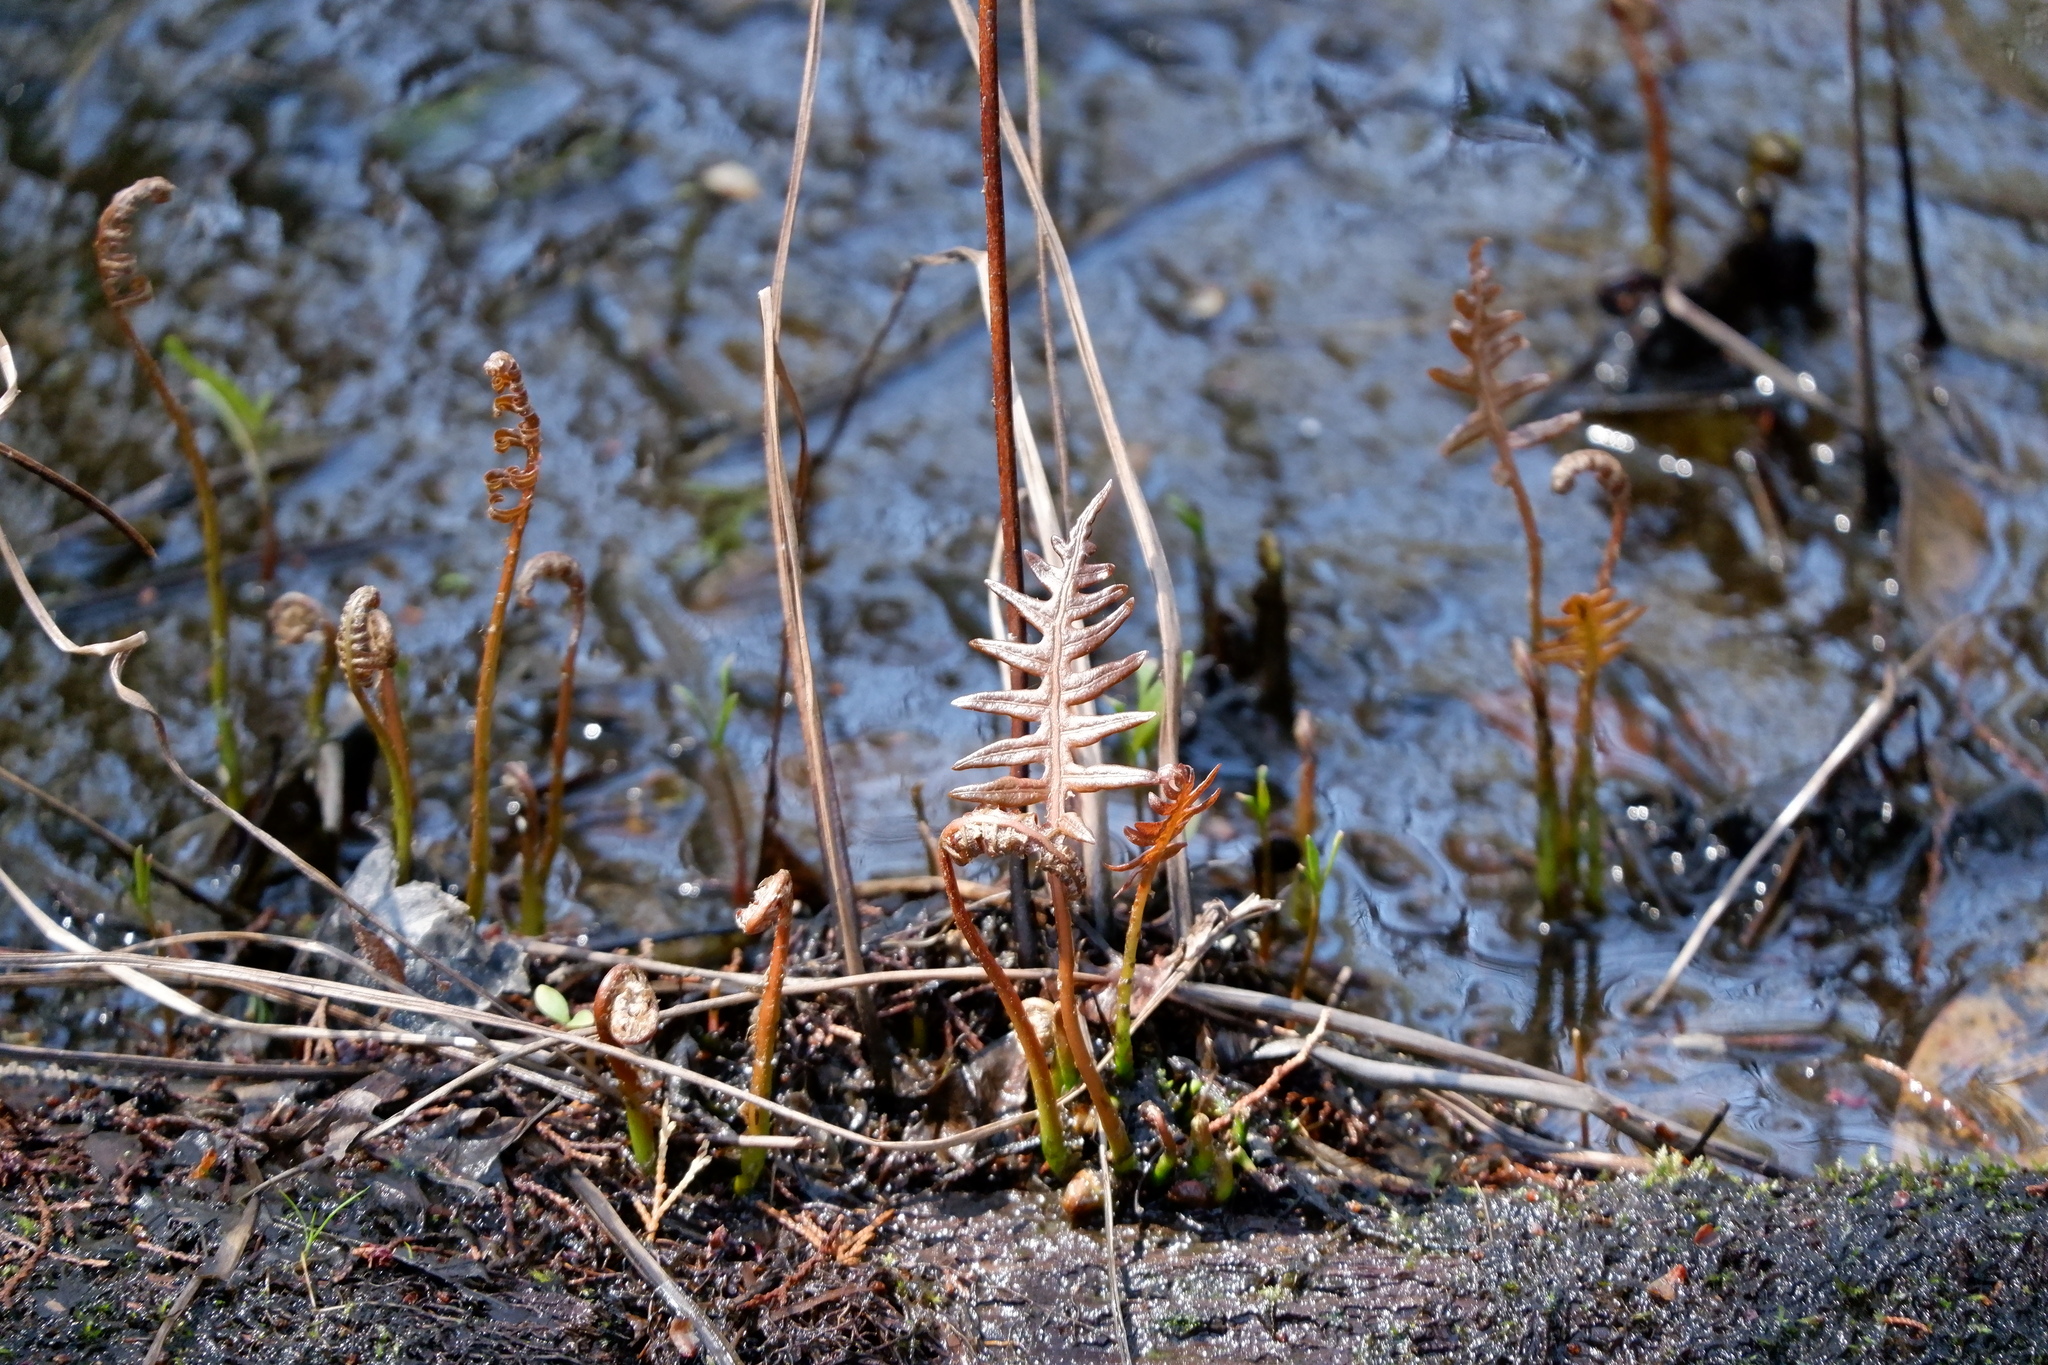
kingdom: Plantae
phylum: Tracheophyta
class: Polypodiopsida
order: Polypodiales
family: Blechnaceae
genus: Lorinseria
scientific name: Lorinseria areolata
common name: Dwarf chain fern
